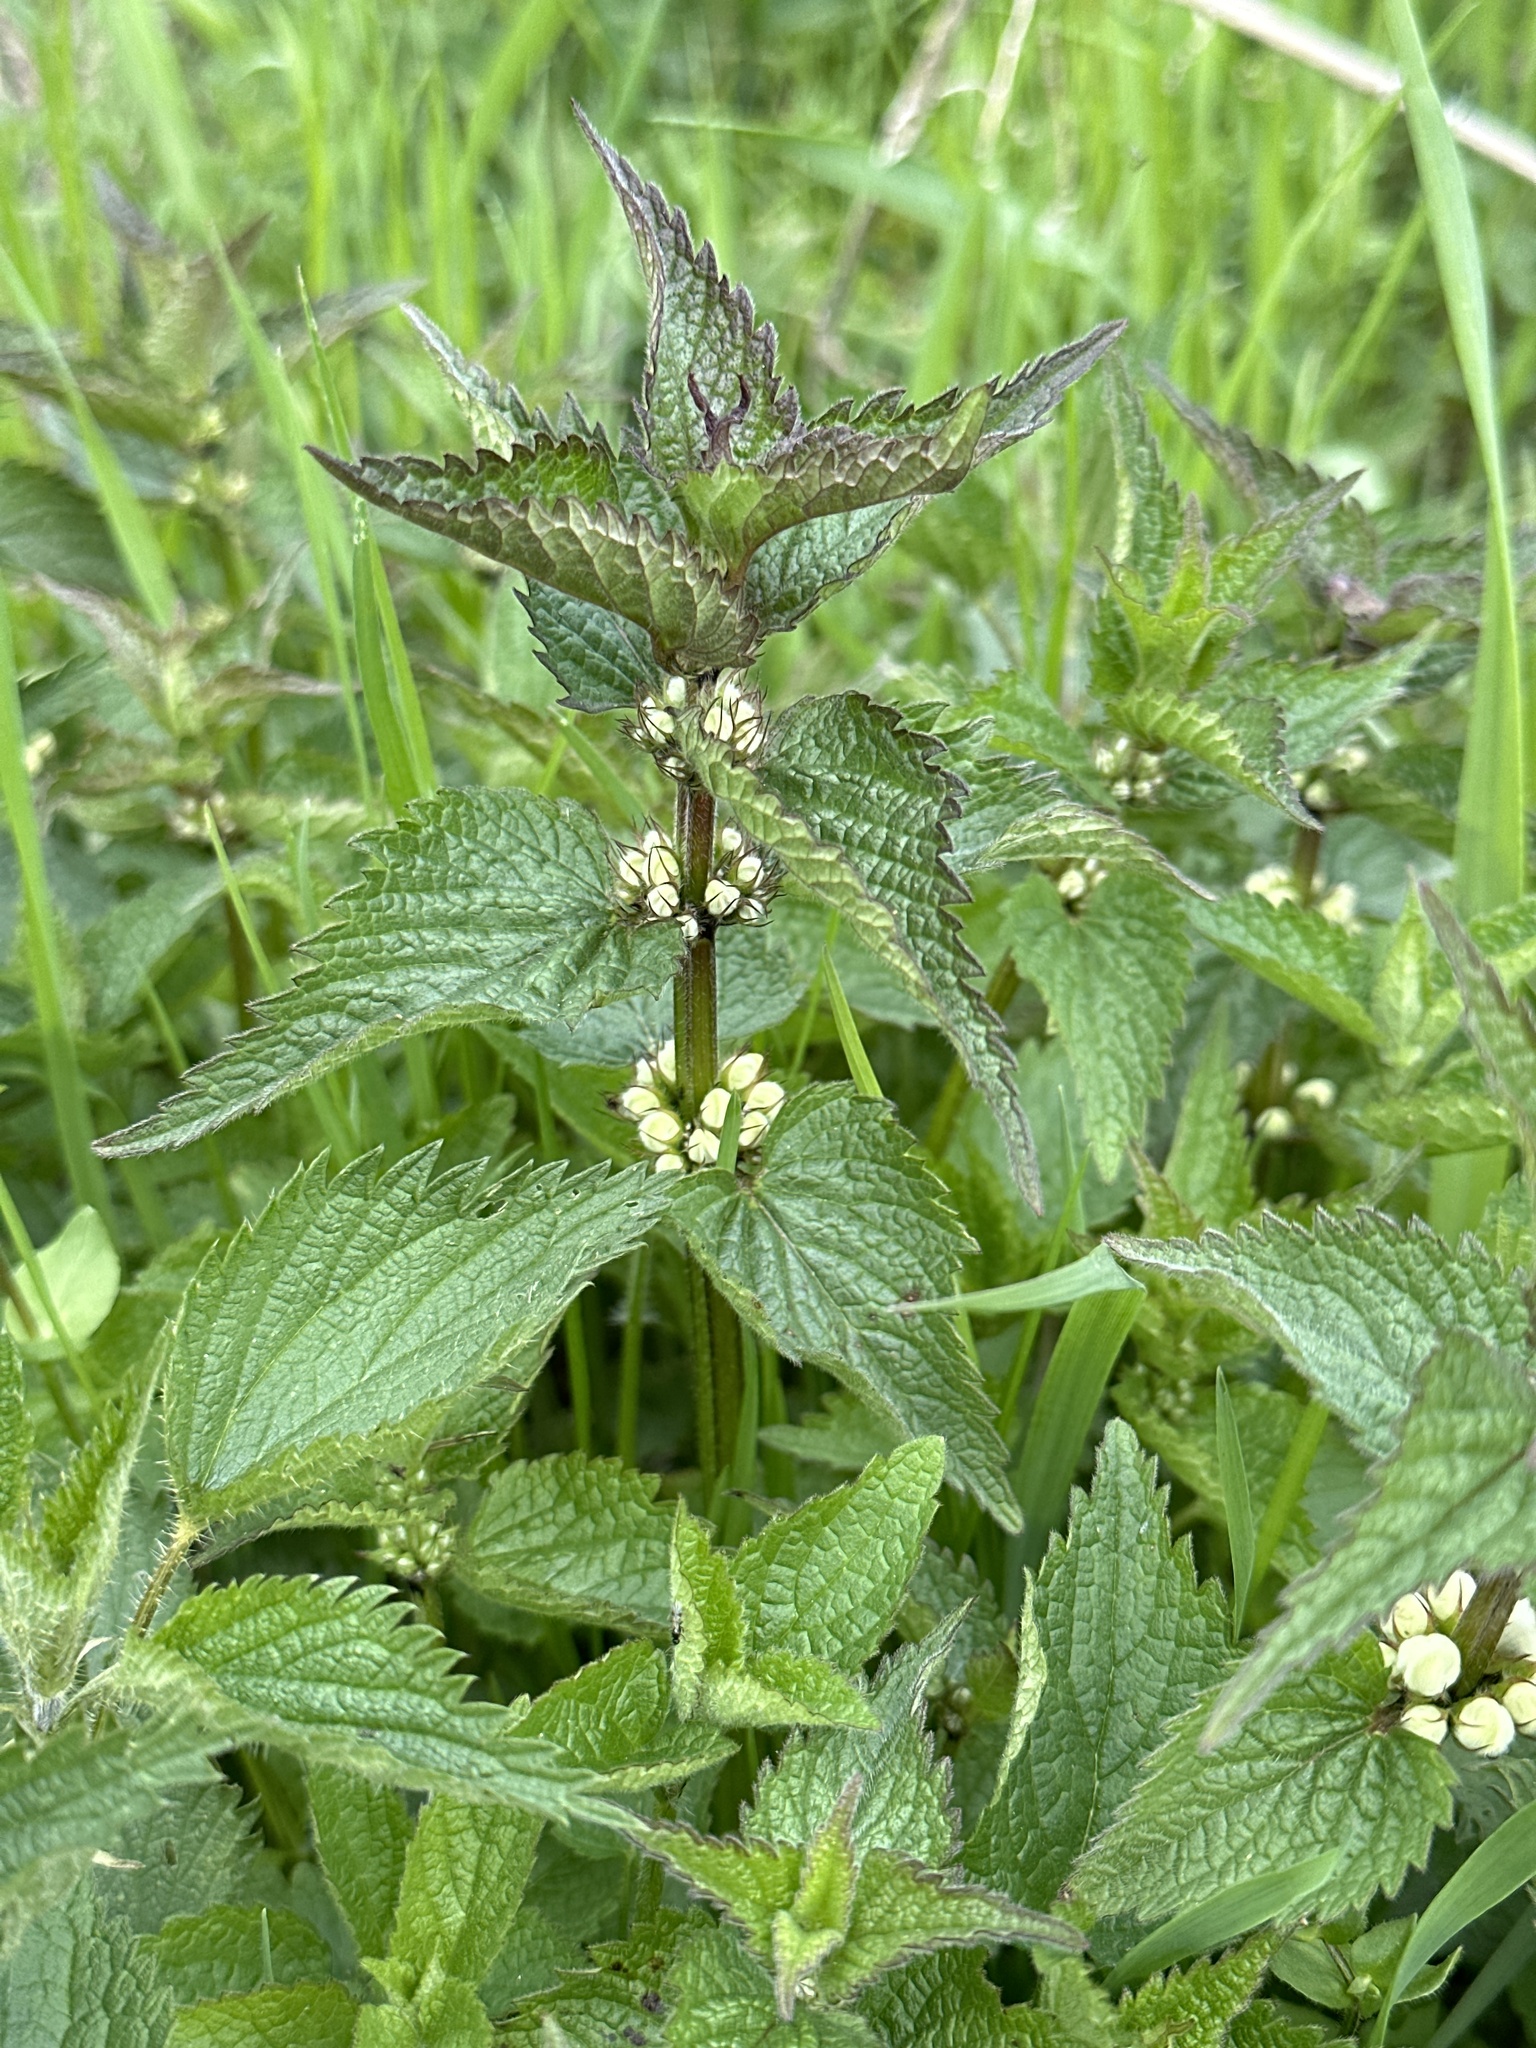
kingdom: Plantae
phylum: Tracheophyta
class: Magnoliopsida
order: Lamiales
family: Lamiaceae
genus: Lamium
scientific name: Lamium album
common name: White dead-nettle
